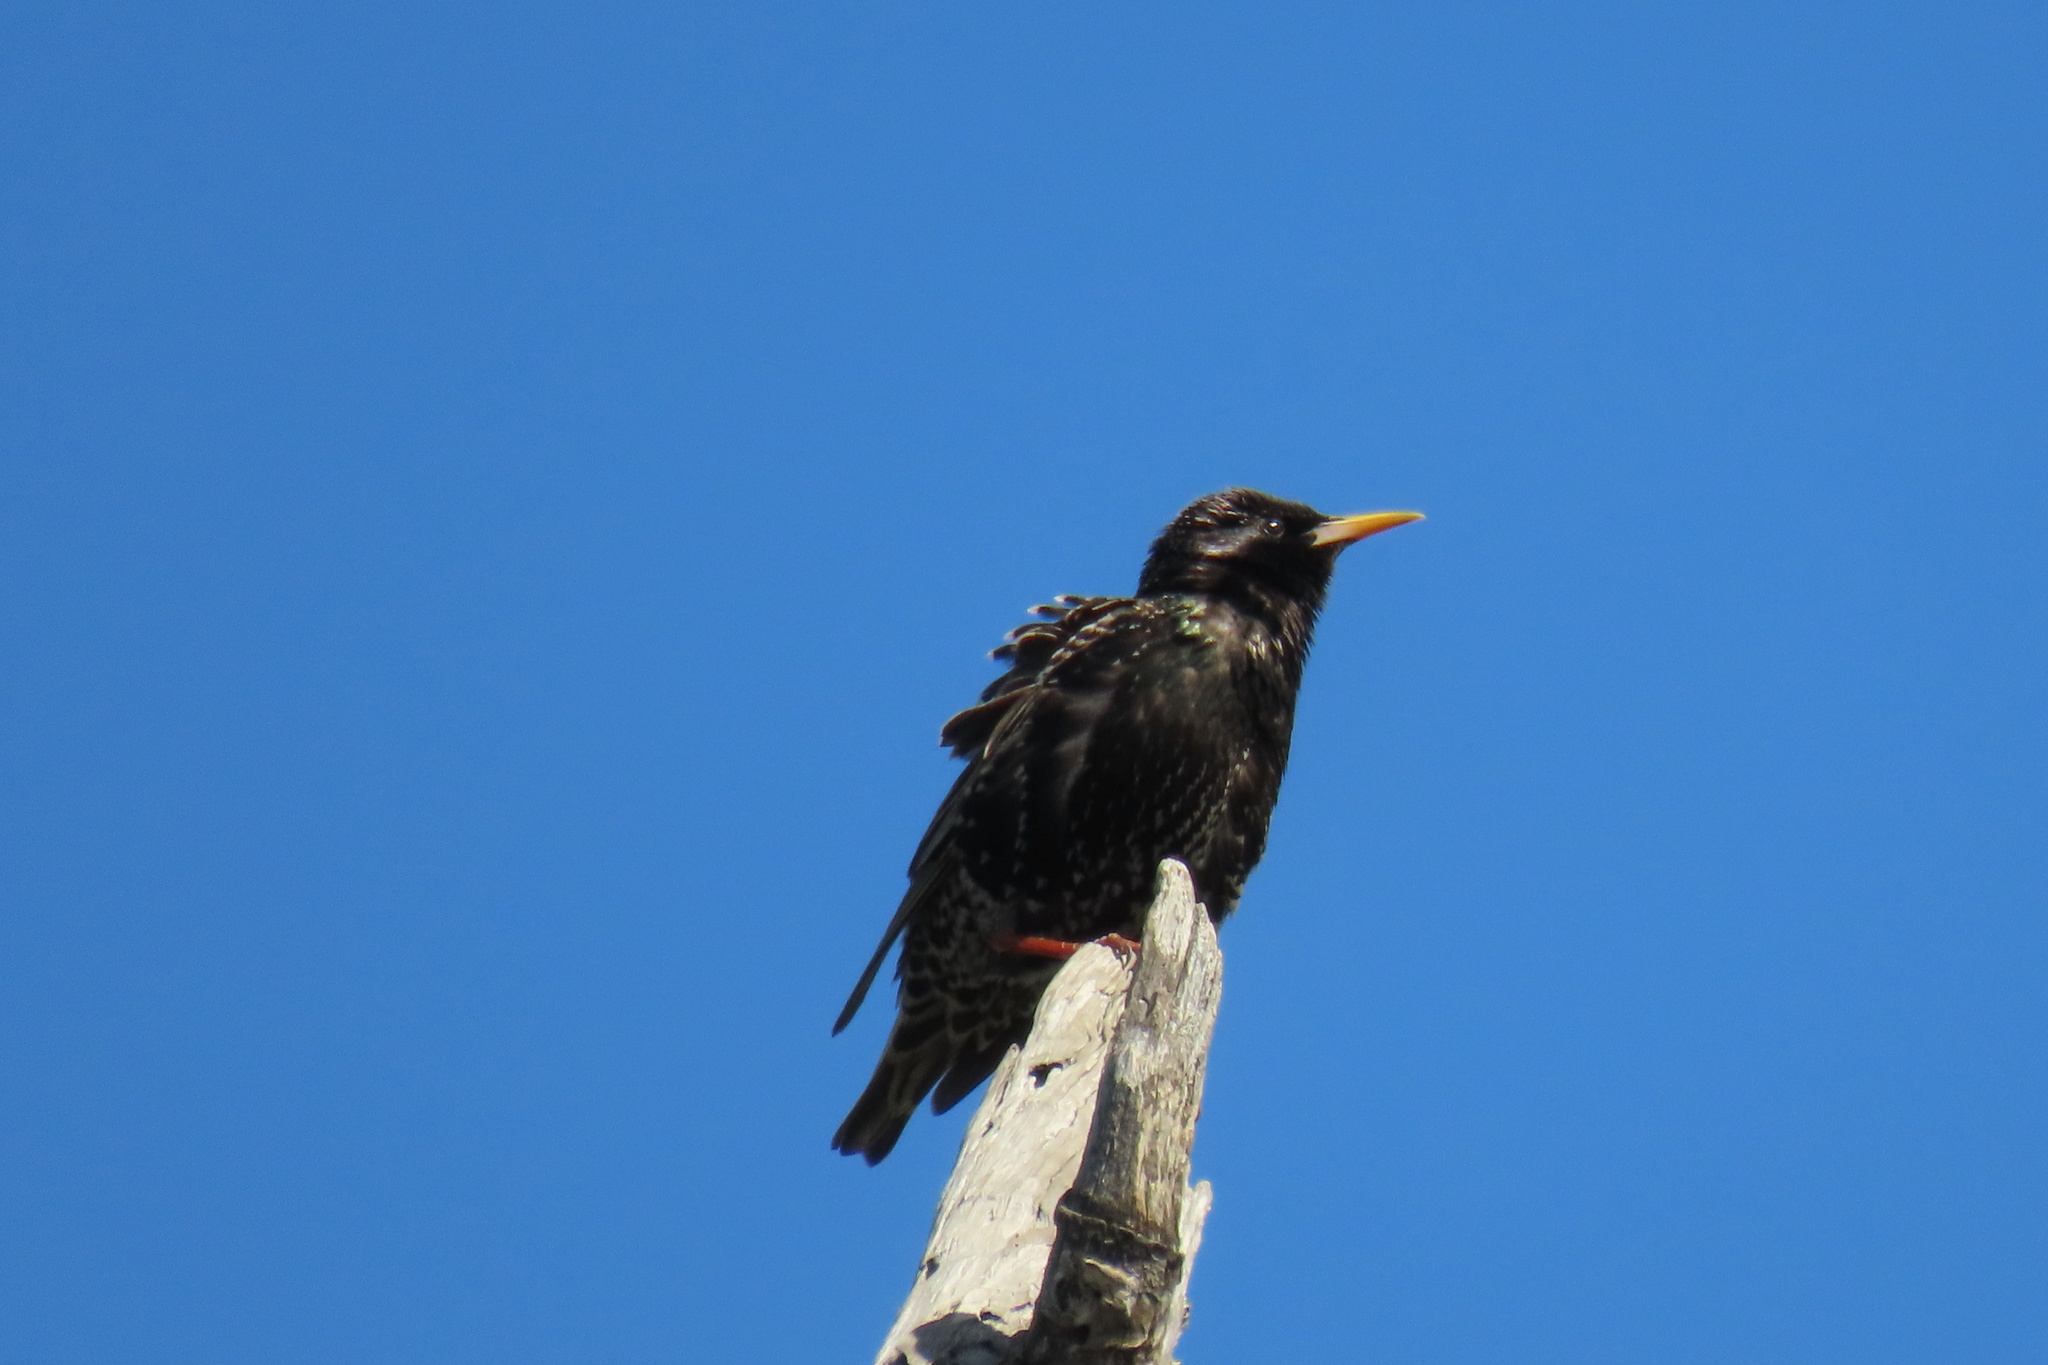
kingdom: Animalia
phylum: Chordata
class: Aves
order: Passeriformes
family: Sturnidae
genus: Sturnus
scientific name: Sturnus vulgaris
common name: Common starling
